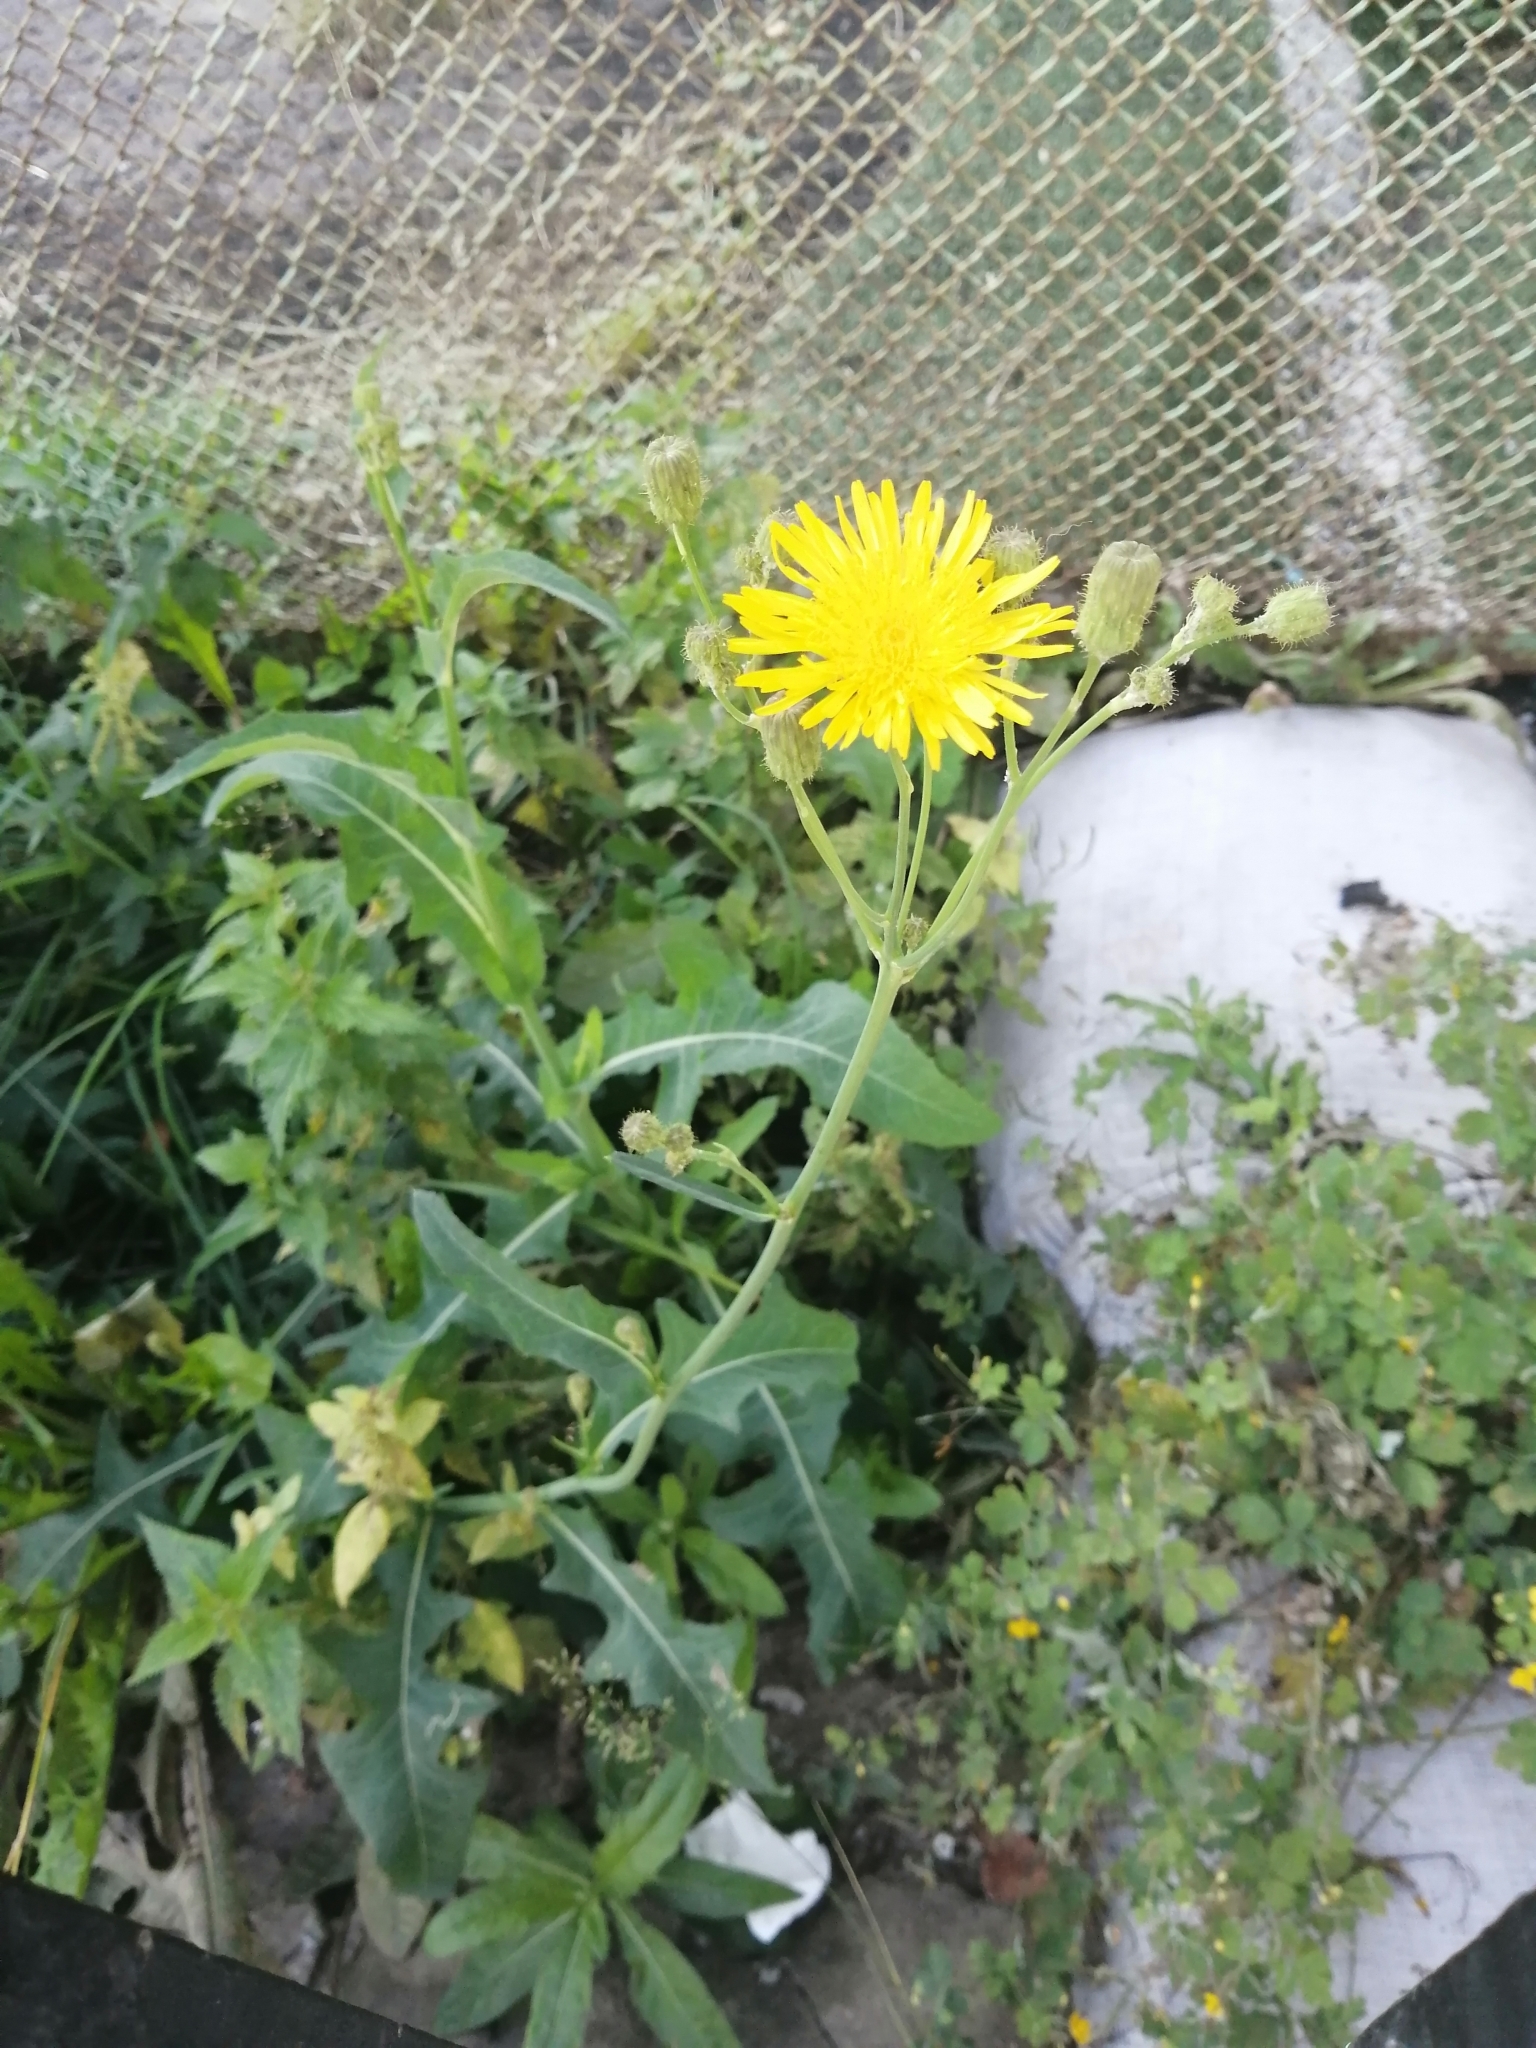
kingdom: Plantae
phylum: Tracheophyta
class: Magnoliopsida
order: Asterales
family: Asteraceae
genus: Sonchus
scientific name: Sonchus arvensis
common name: Perennial sow-thistle
